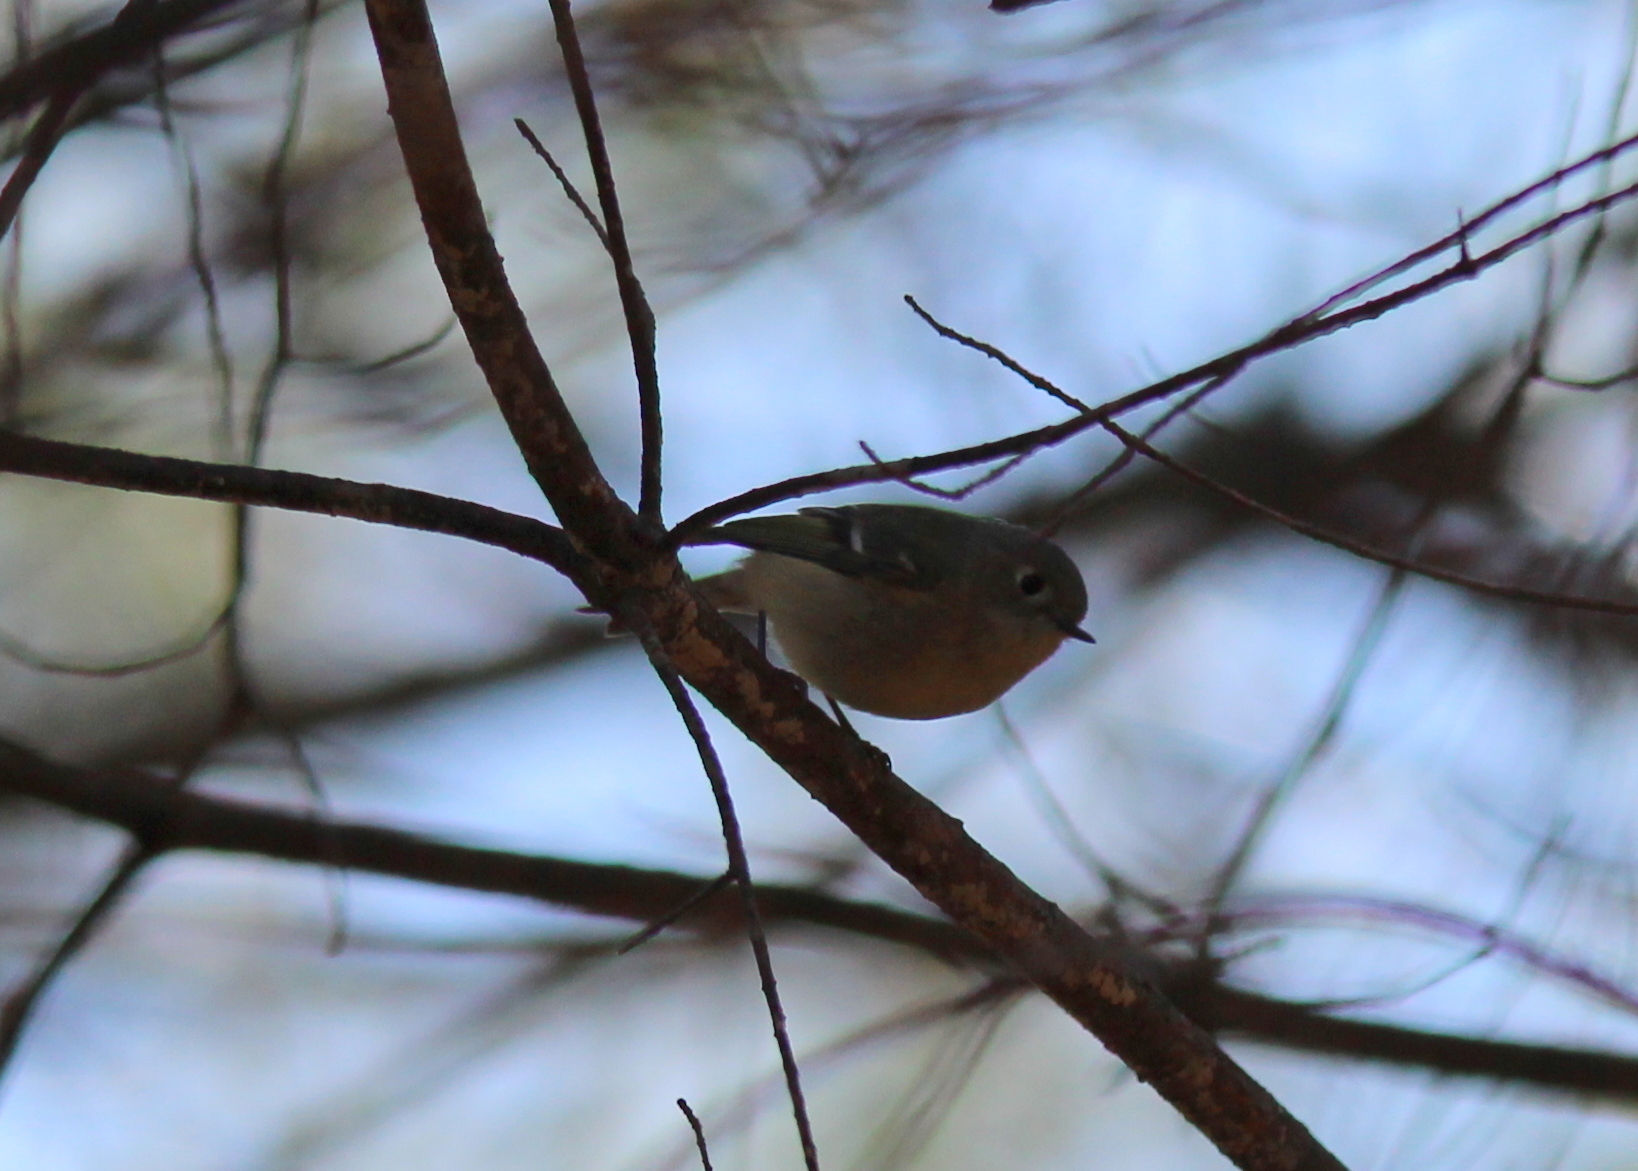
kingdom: Animalia
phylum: Chordata
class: Aves
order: Passeriformes
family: Regulidae
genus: Regulus
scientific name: Regulus calendula
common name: Ruby-crowned kinglet
